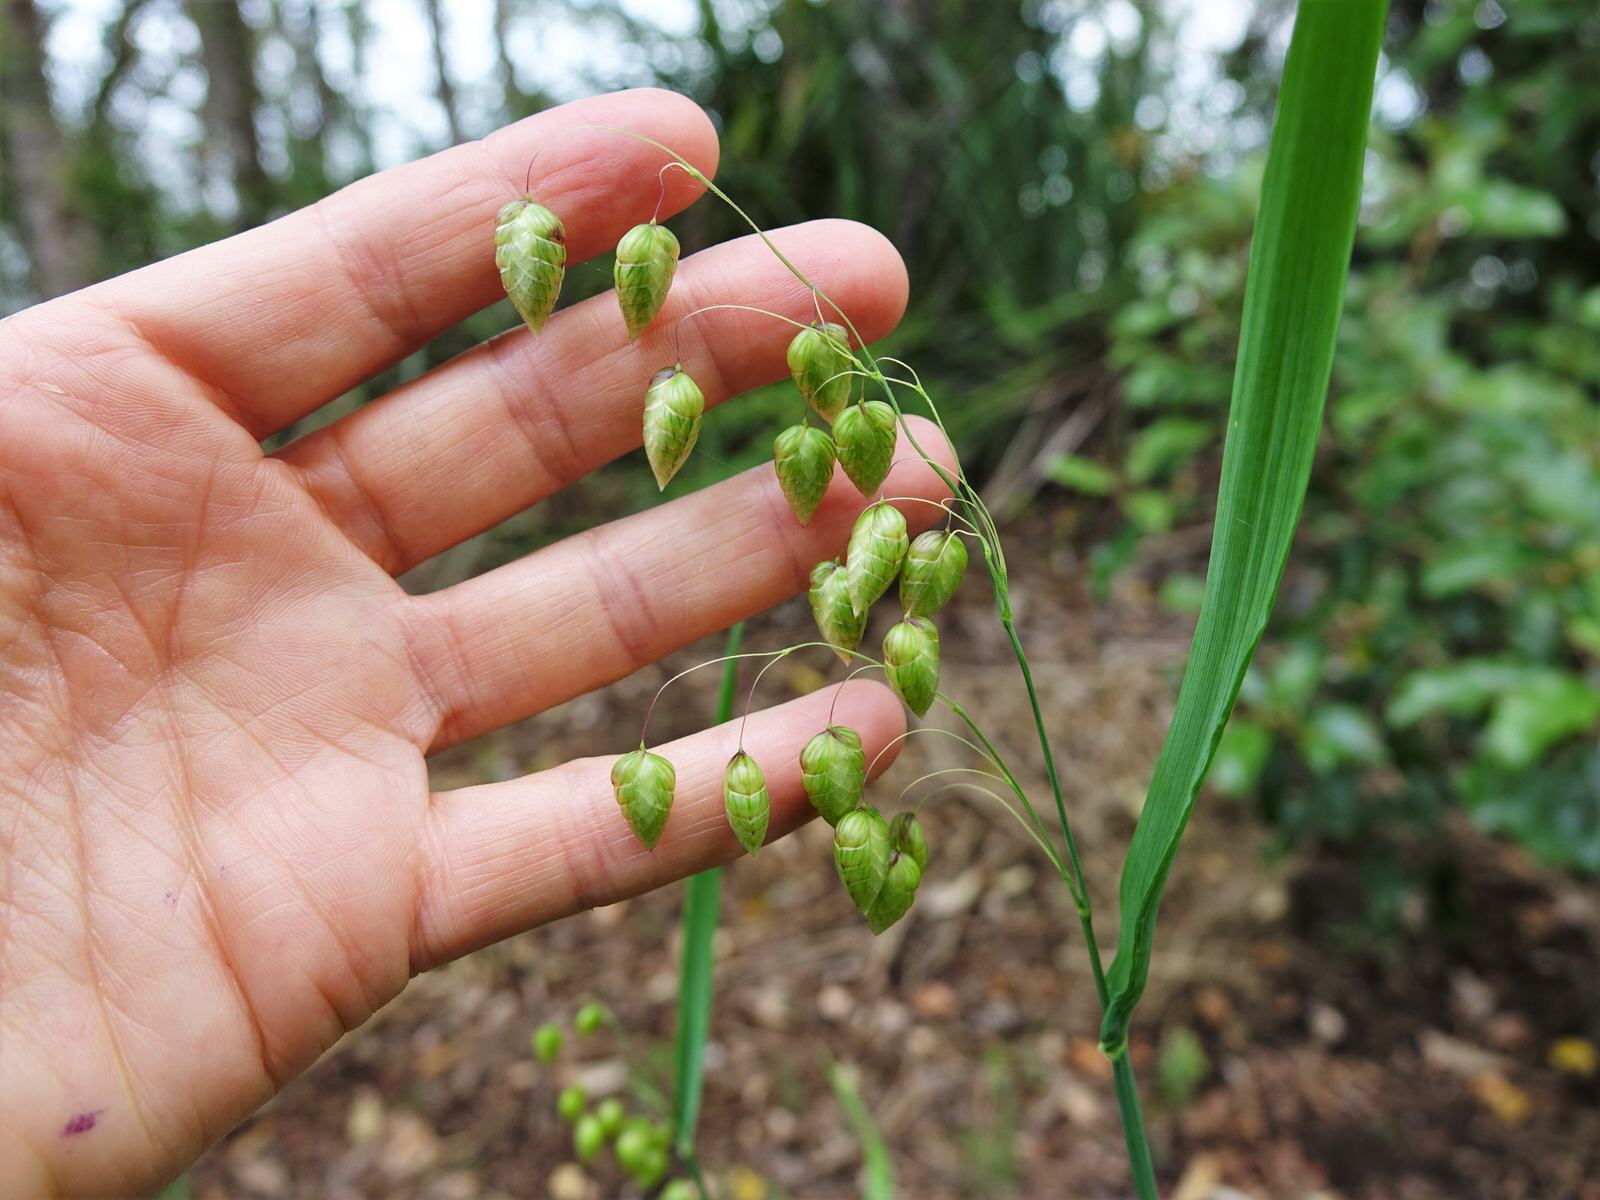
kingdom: Plantae
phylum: Tracheophyta
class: Liliopsida
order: Poales
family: Poaceae
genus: Briza
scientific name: Briza maxima
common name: Big quakinggrass
